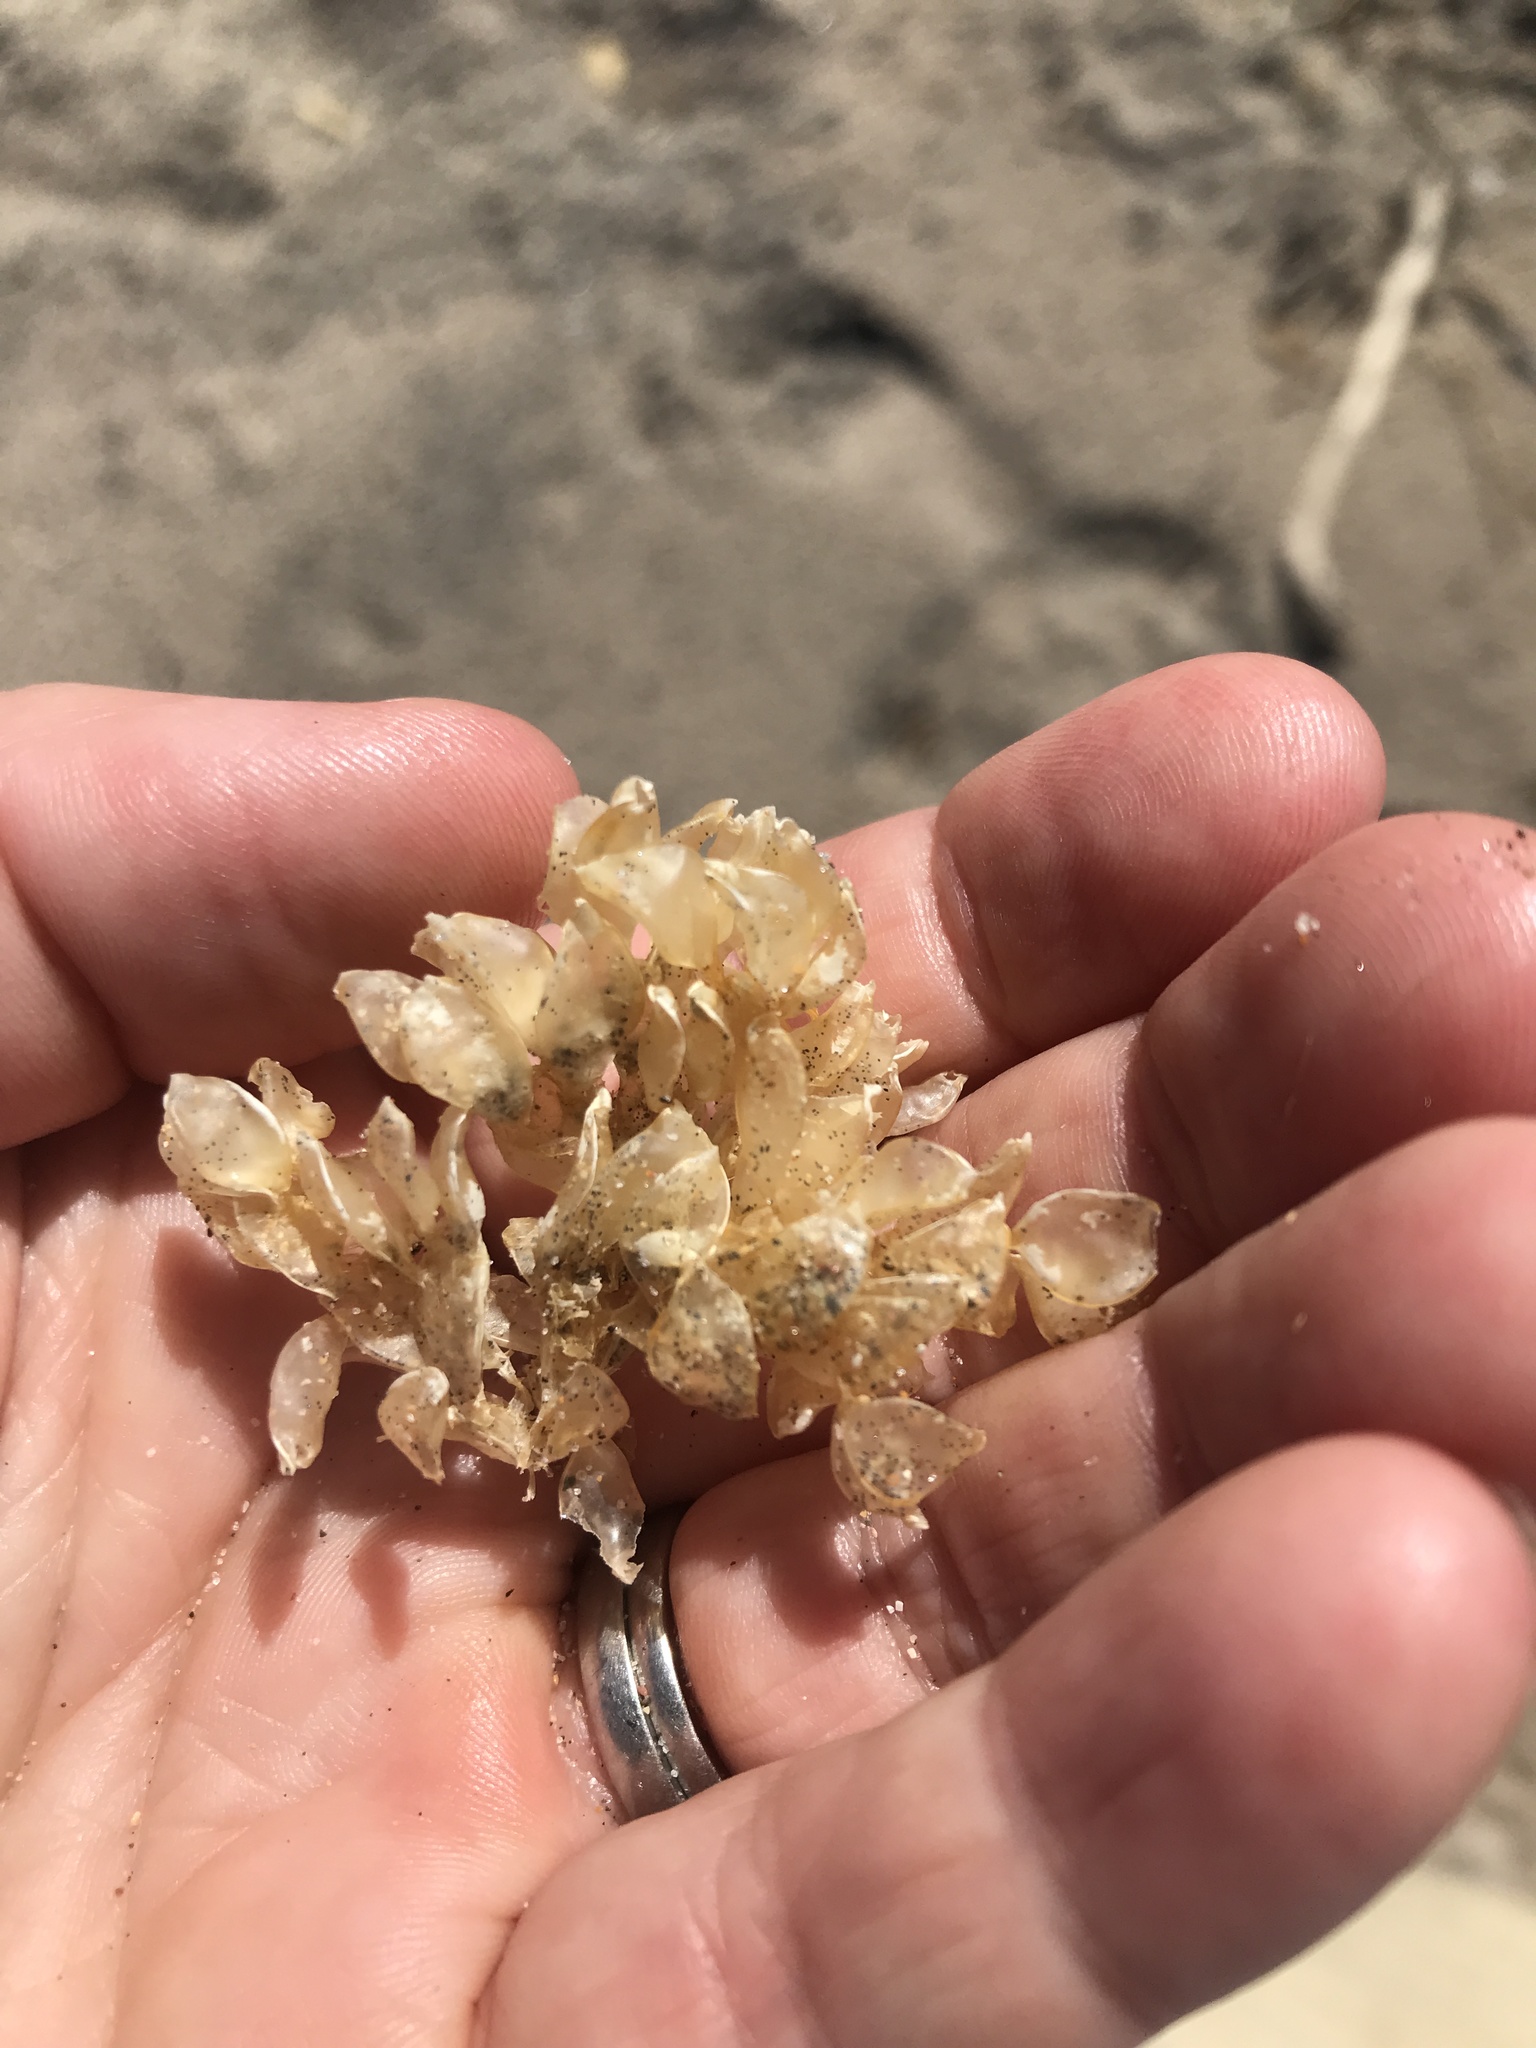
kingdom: Animalia
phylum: Mollusca
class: Gastropoda
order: Neogastropoda
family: Cominellidae
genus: Cominella
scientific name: Cominella adspersa
